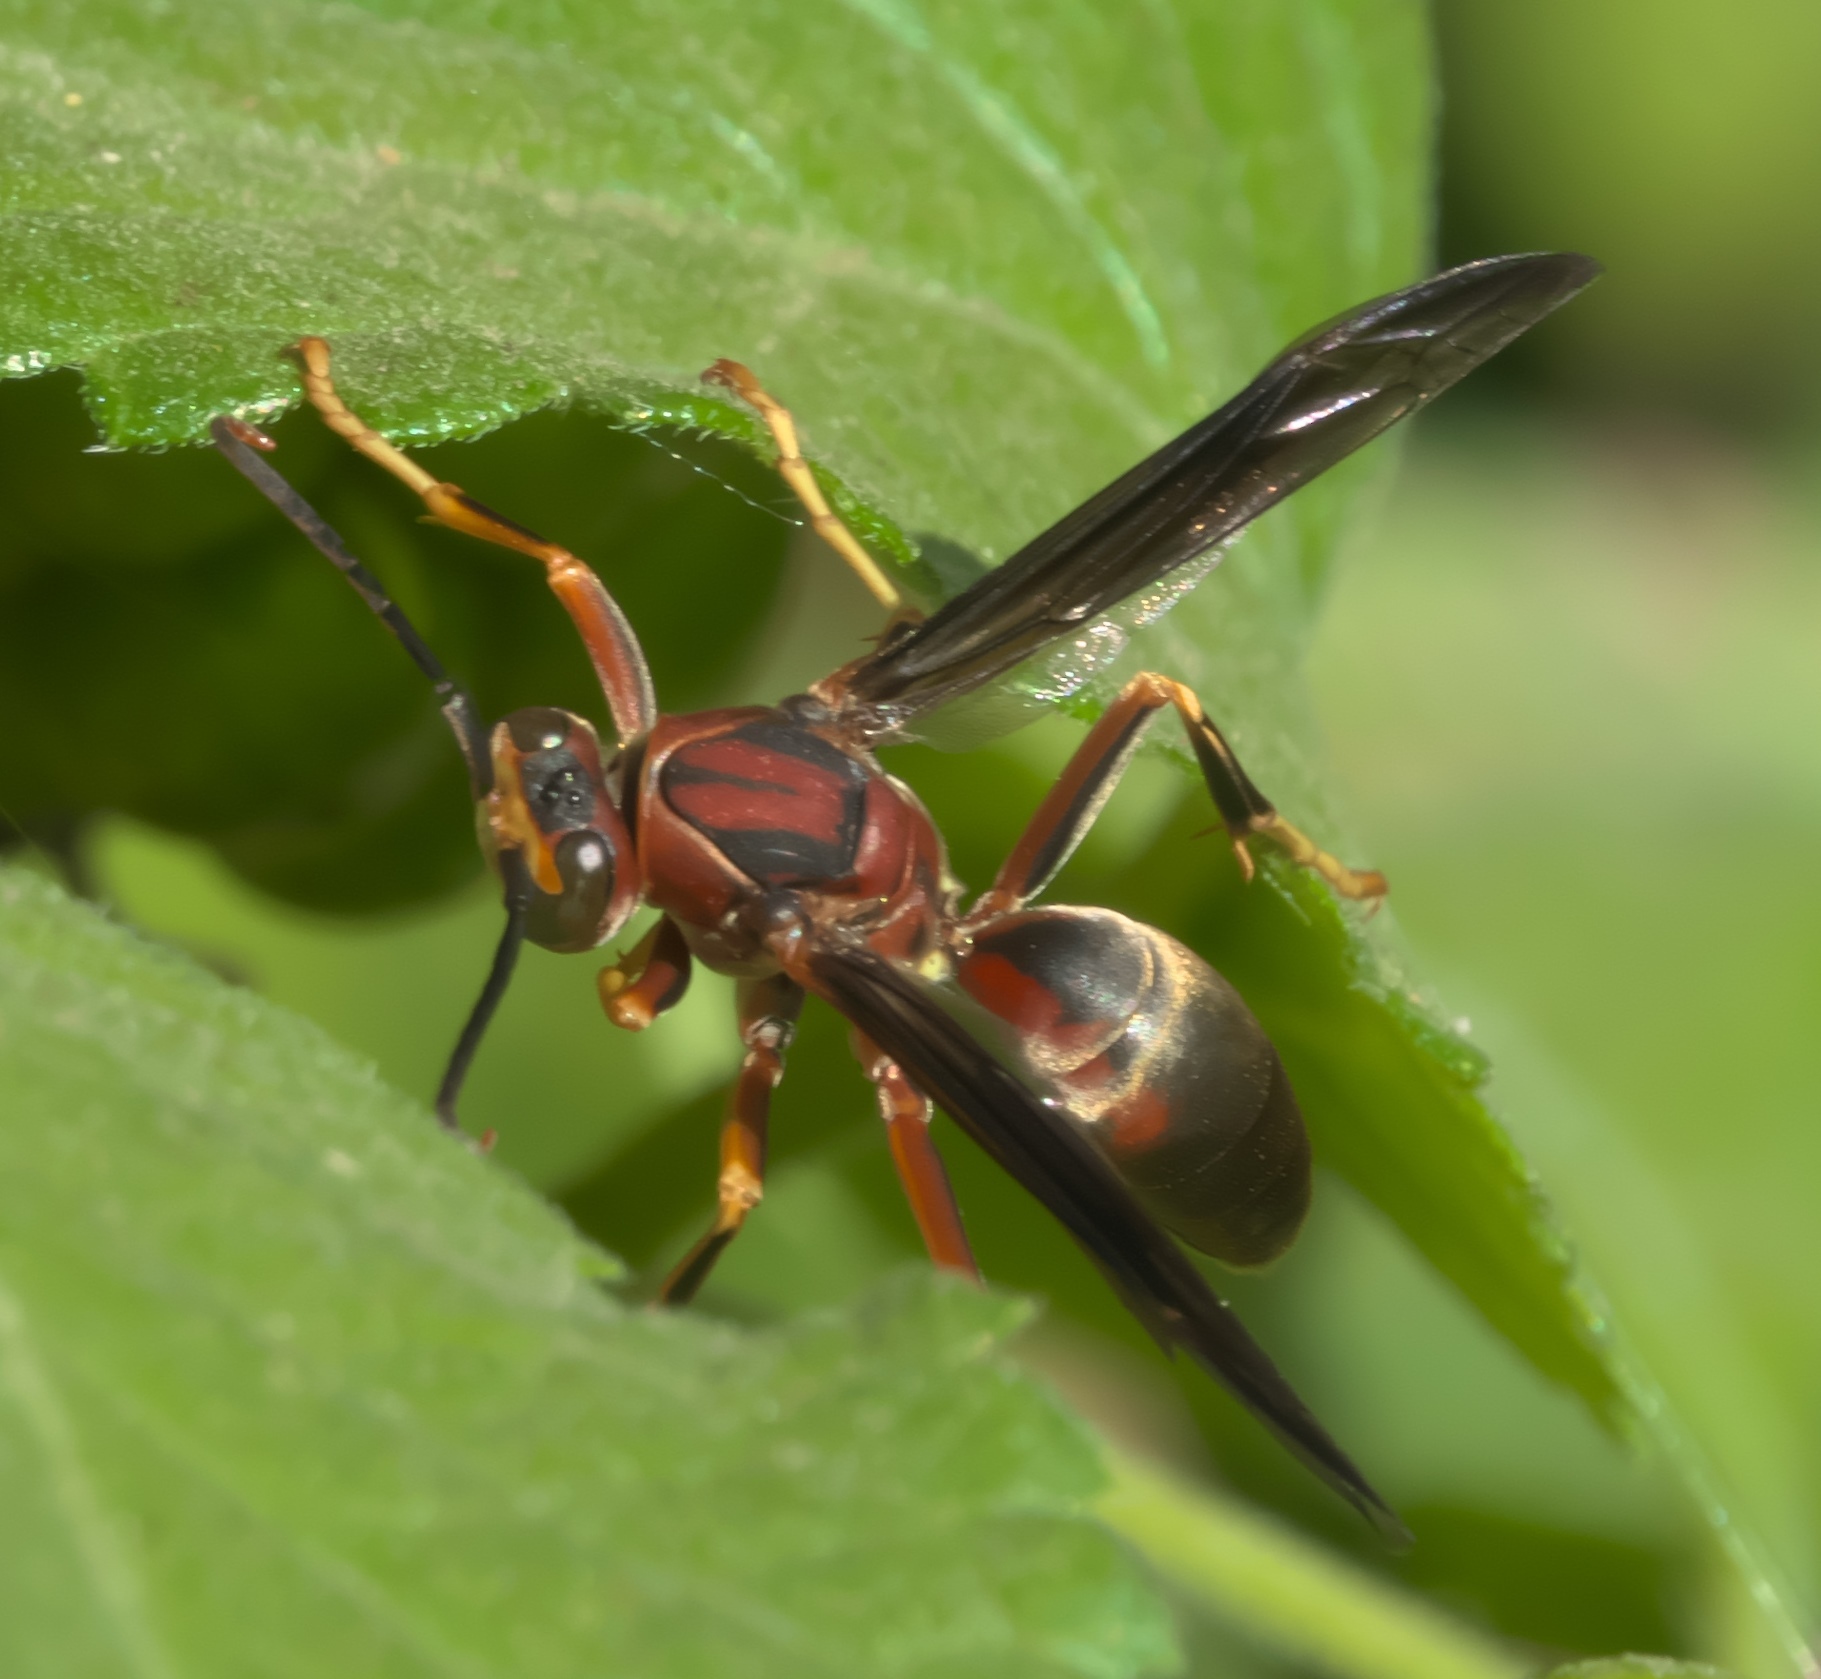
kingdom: Animalia
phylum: Arthropoda
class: Insecta
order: Hymenoptera
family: Eumenidae
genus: Polistes
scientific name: Polistes metricus
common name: Metric paper wasp
